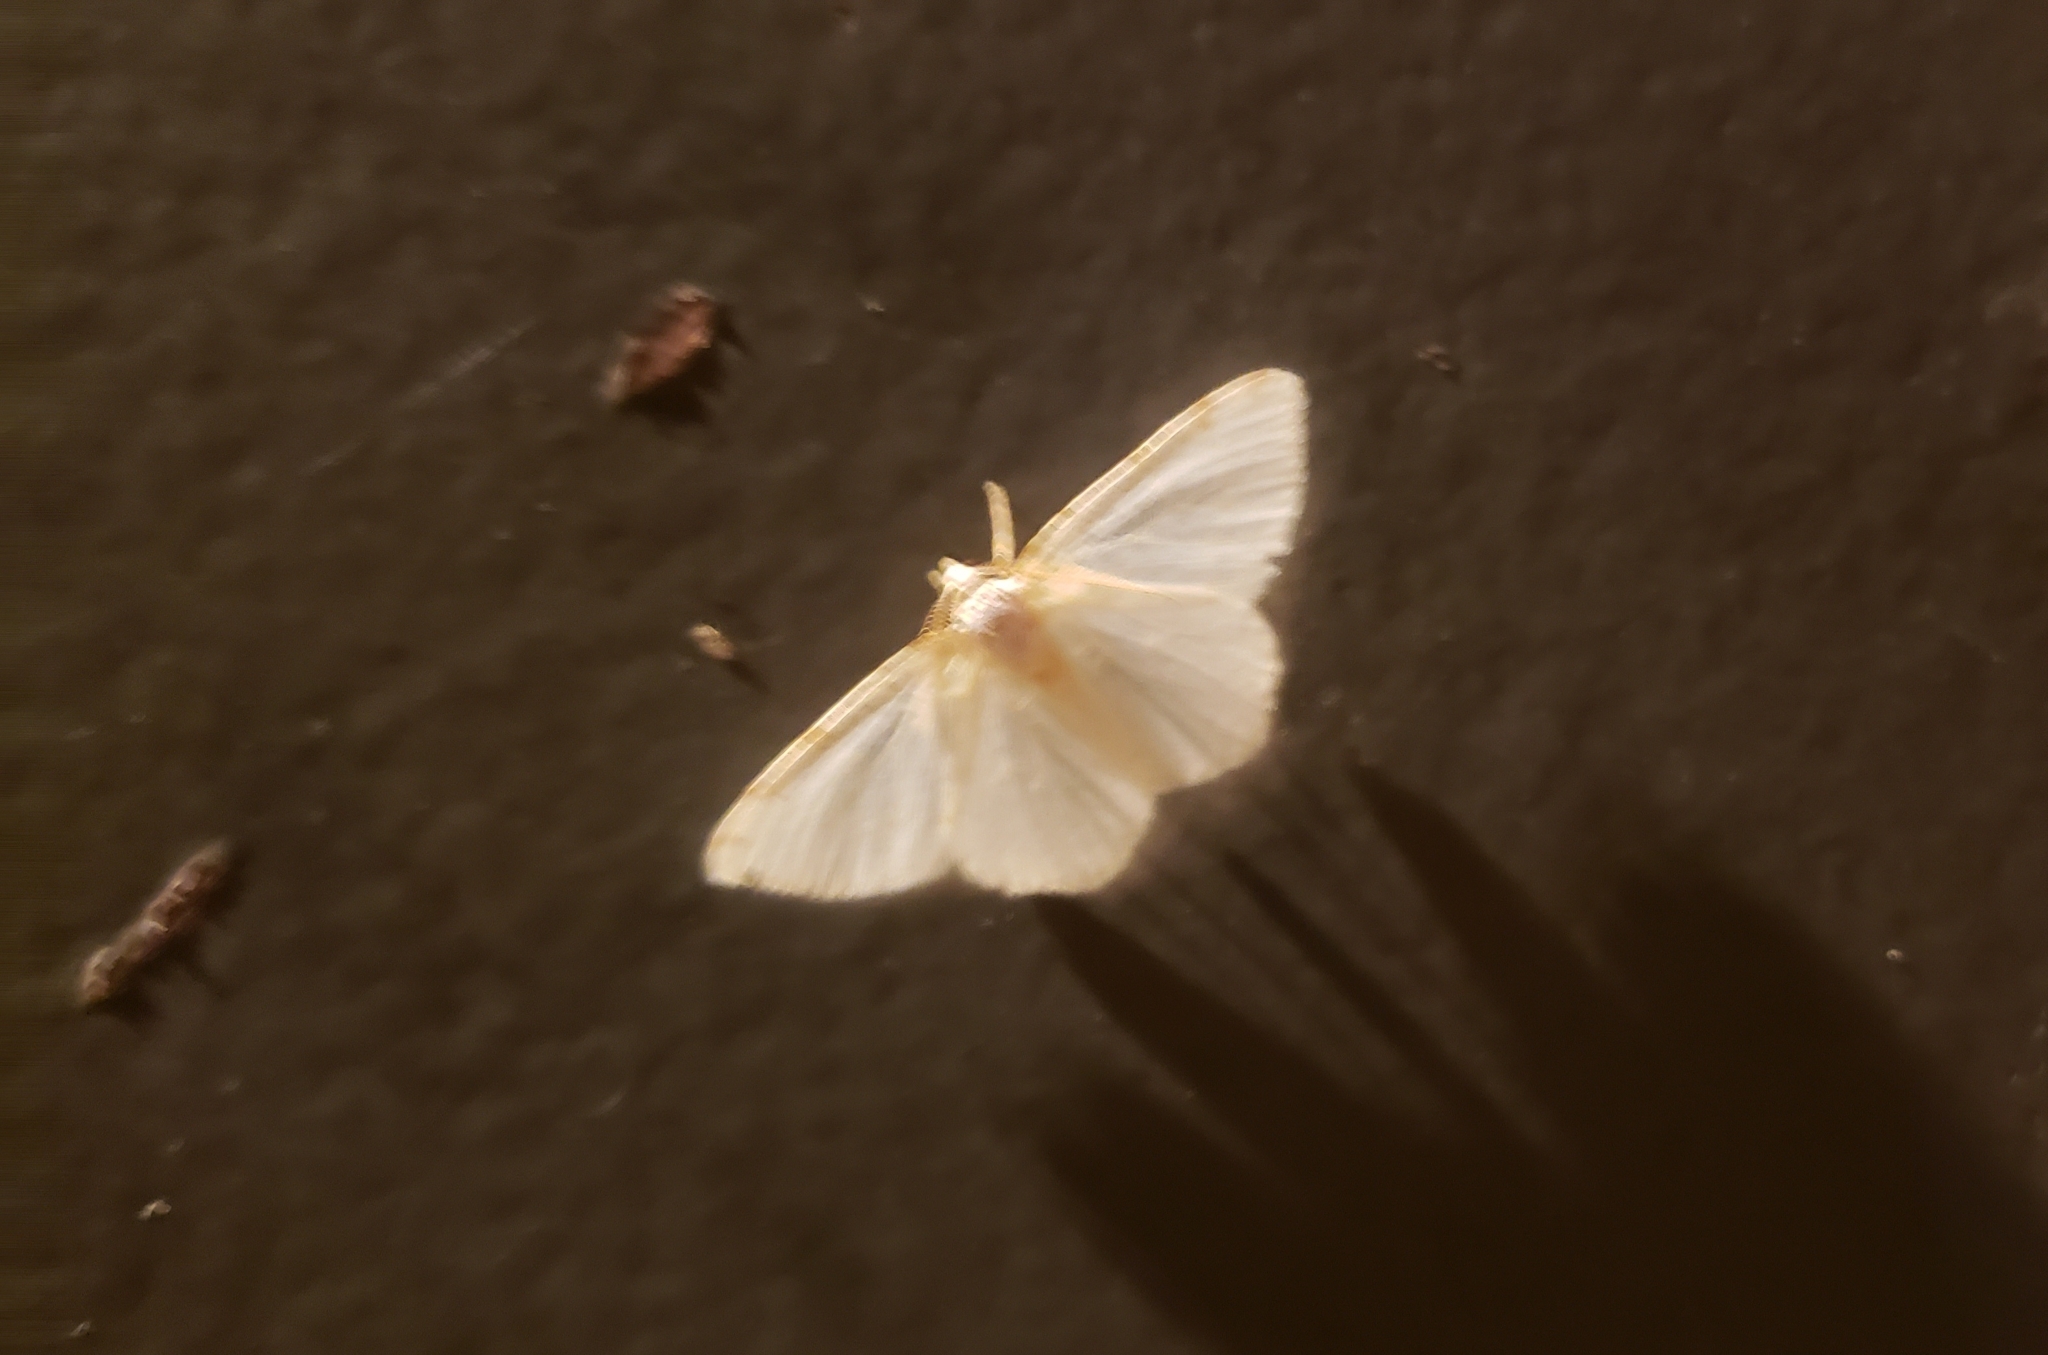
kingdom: Animalia
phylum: Arthropoda
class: Insecta
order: Lepidoptera
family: Geometridae
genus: Macaria
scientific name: Macaria pustularia
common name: Lesser maple spanworm moth
